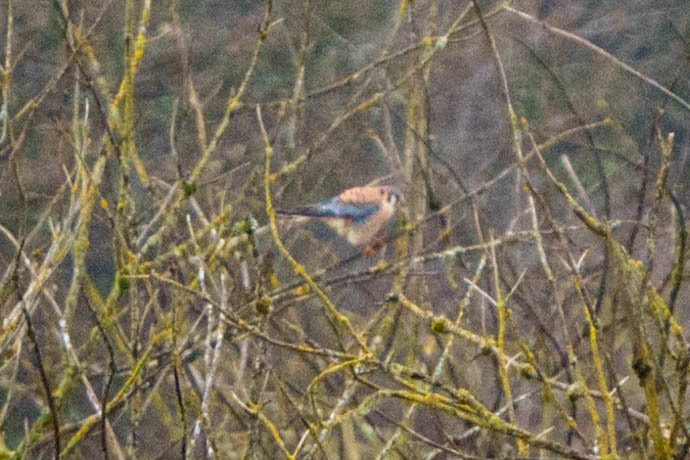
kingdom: Animalia
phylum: Chordata
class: Aves
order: Falconiformes
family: Falconidae
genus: Falco
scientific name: Falco sparverius
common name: American kestrel
